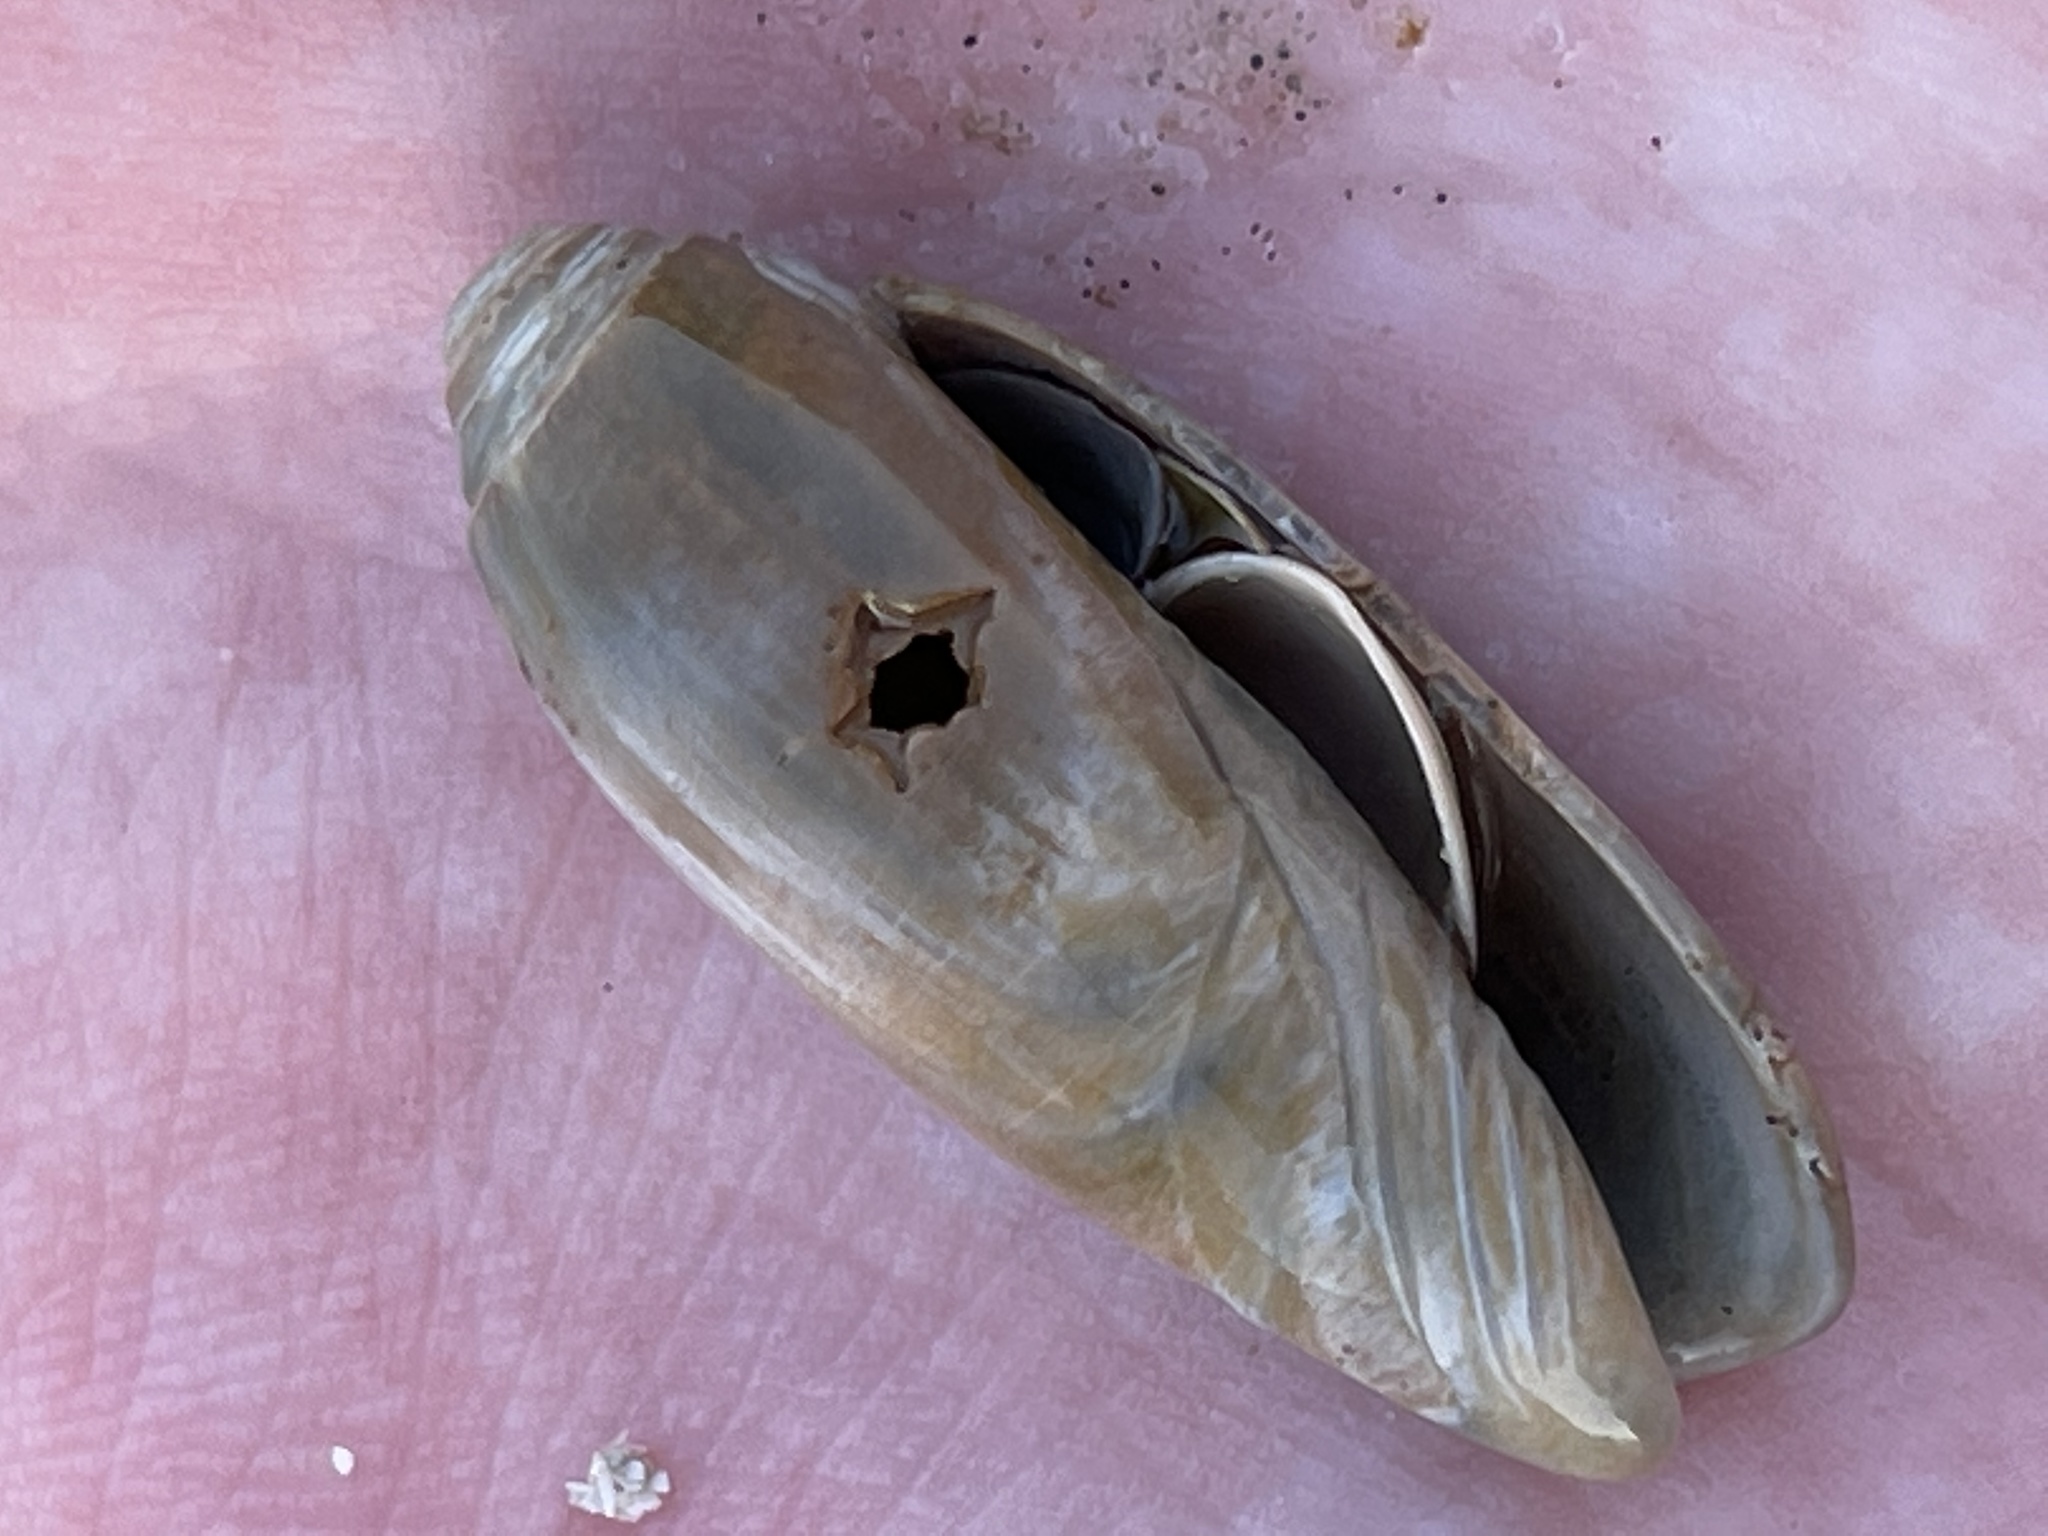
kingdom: Animalia
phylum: Mollusca
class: Gastropoda
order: Neogastropoda
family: Olividae
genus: Oliva
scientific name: Oliva sayana
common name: Lettered olive
